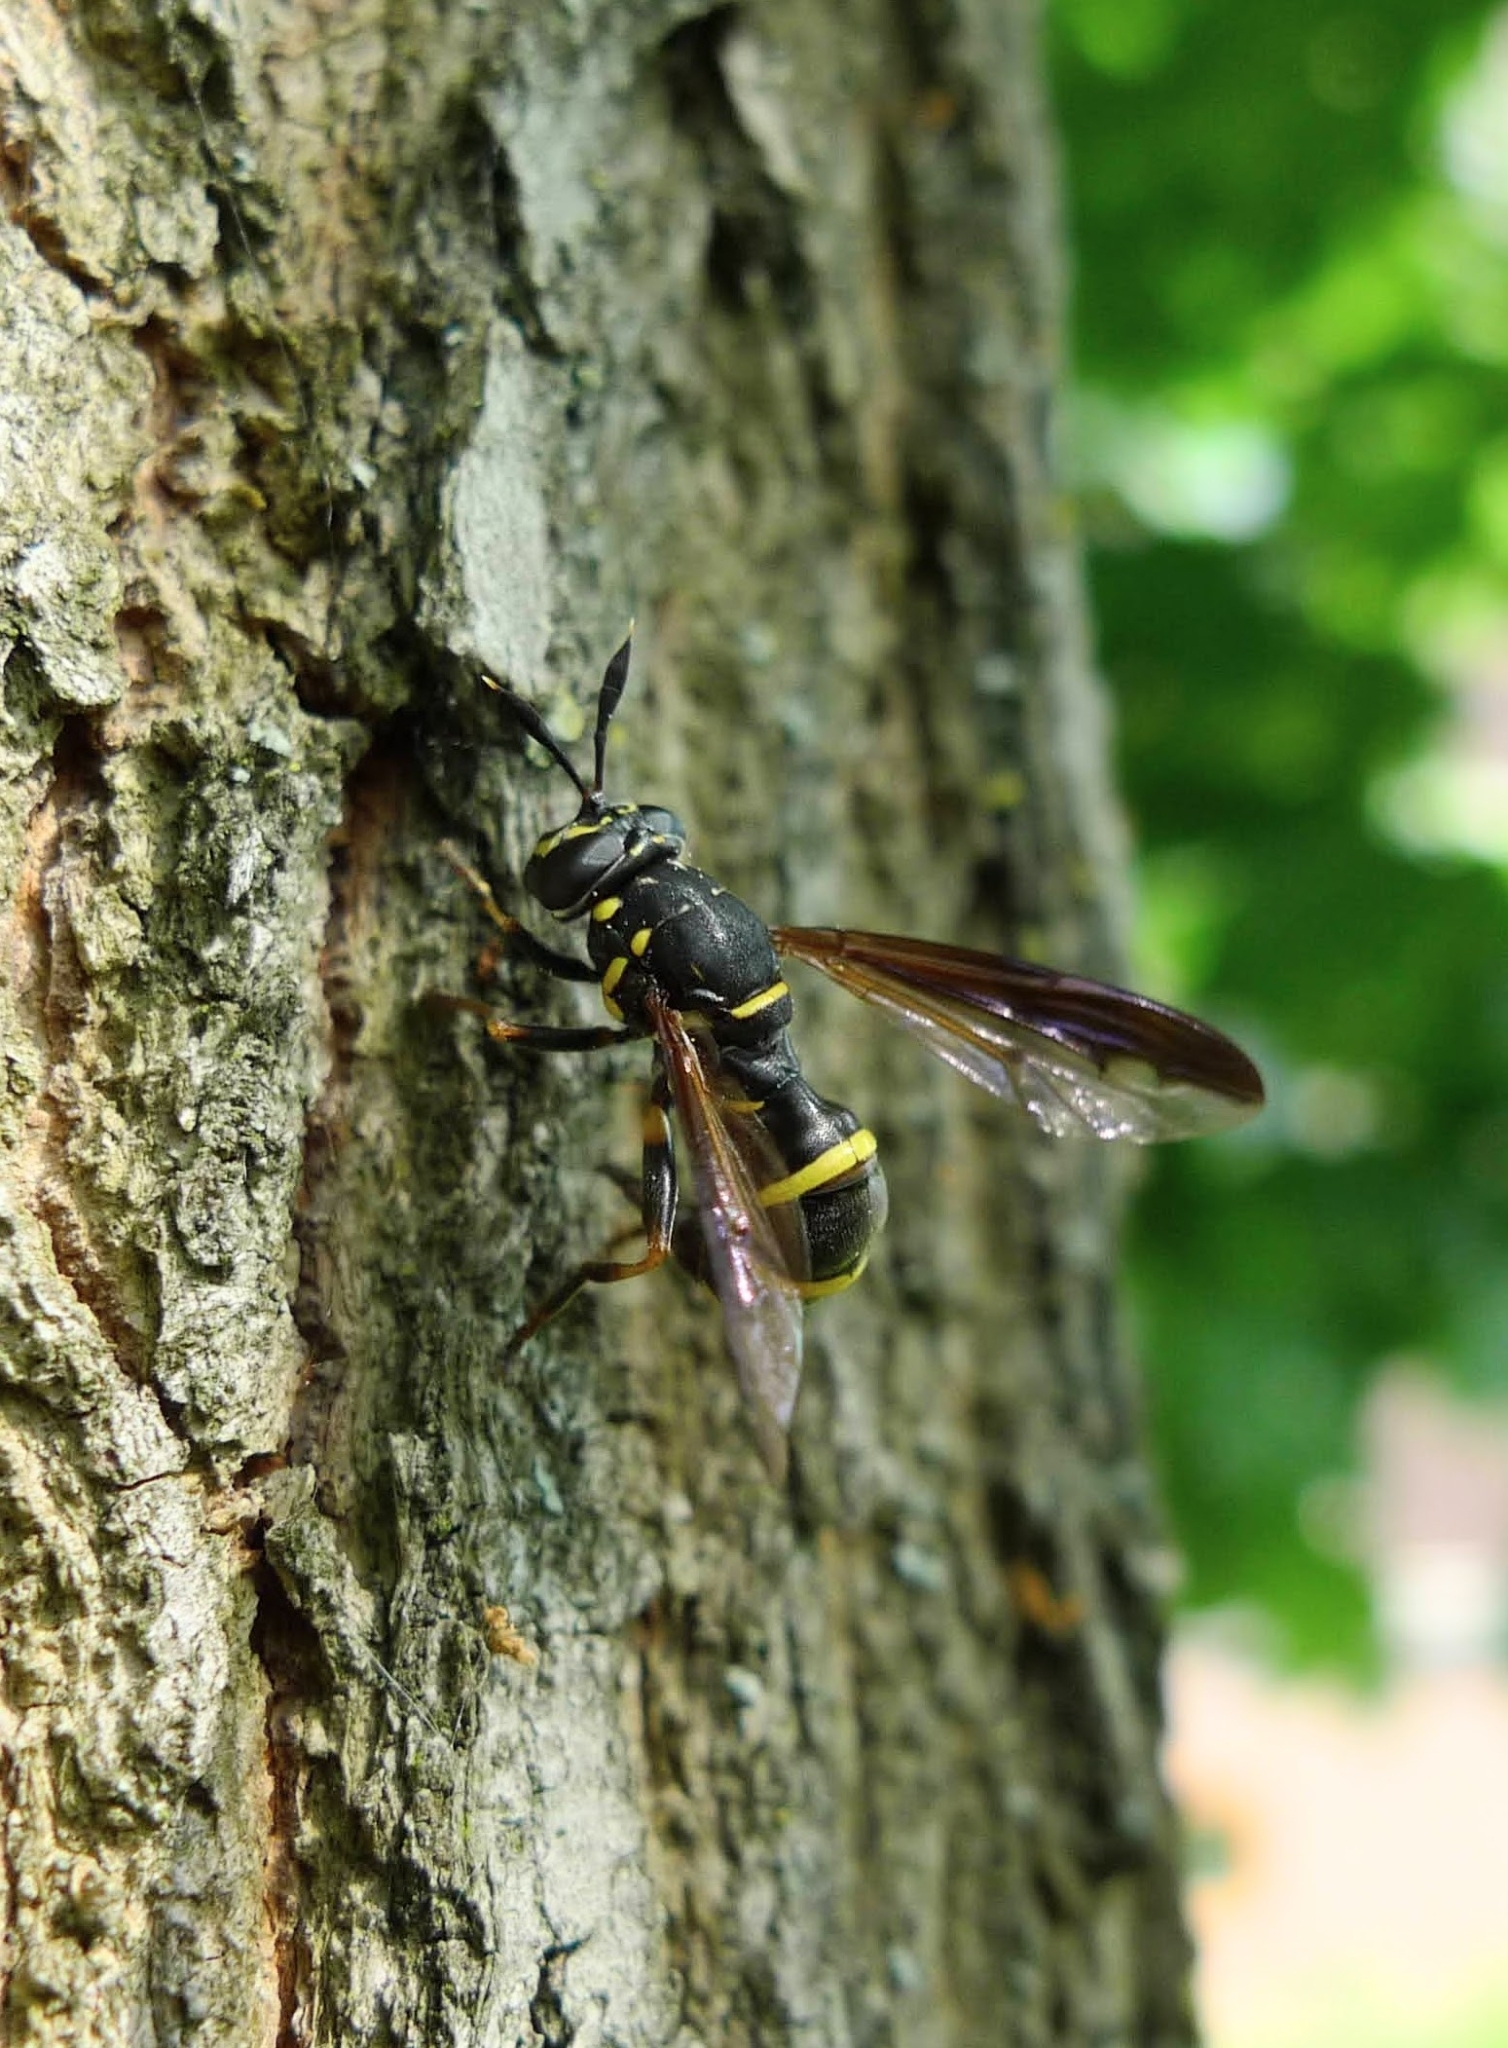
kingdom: Animalia
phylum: Arthropoda
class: Insecta
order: Diptera
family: Syrphidae
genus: Sphiximorpha
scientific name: Sphiximorpha subsessilis
